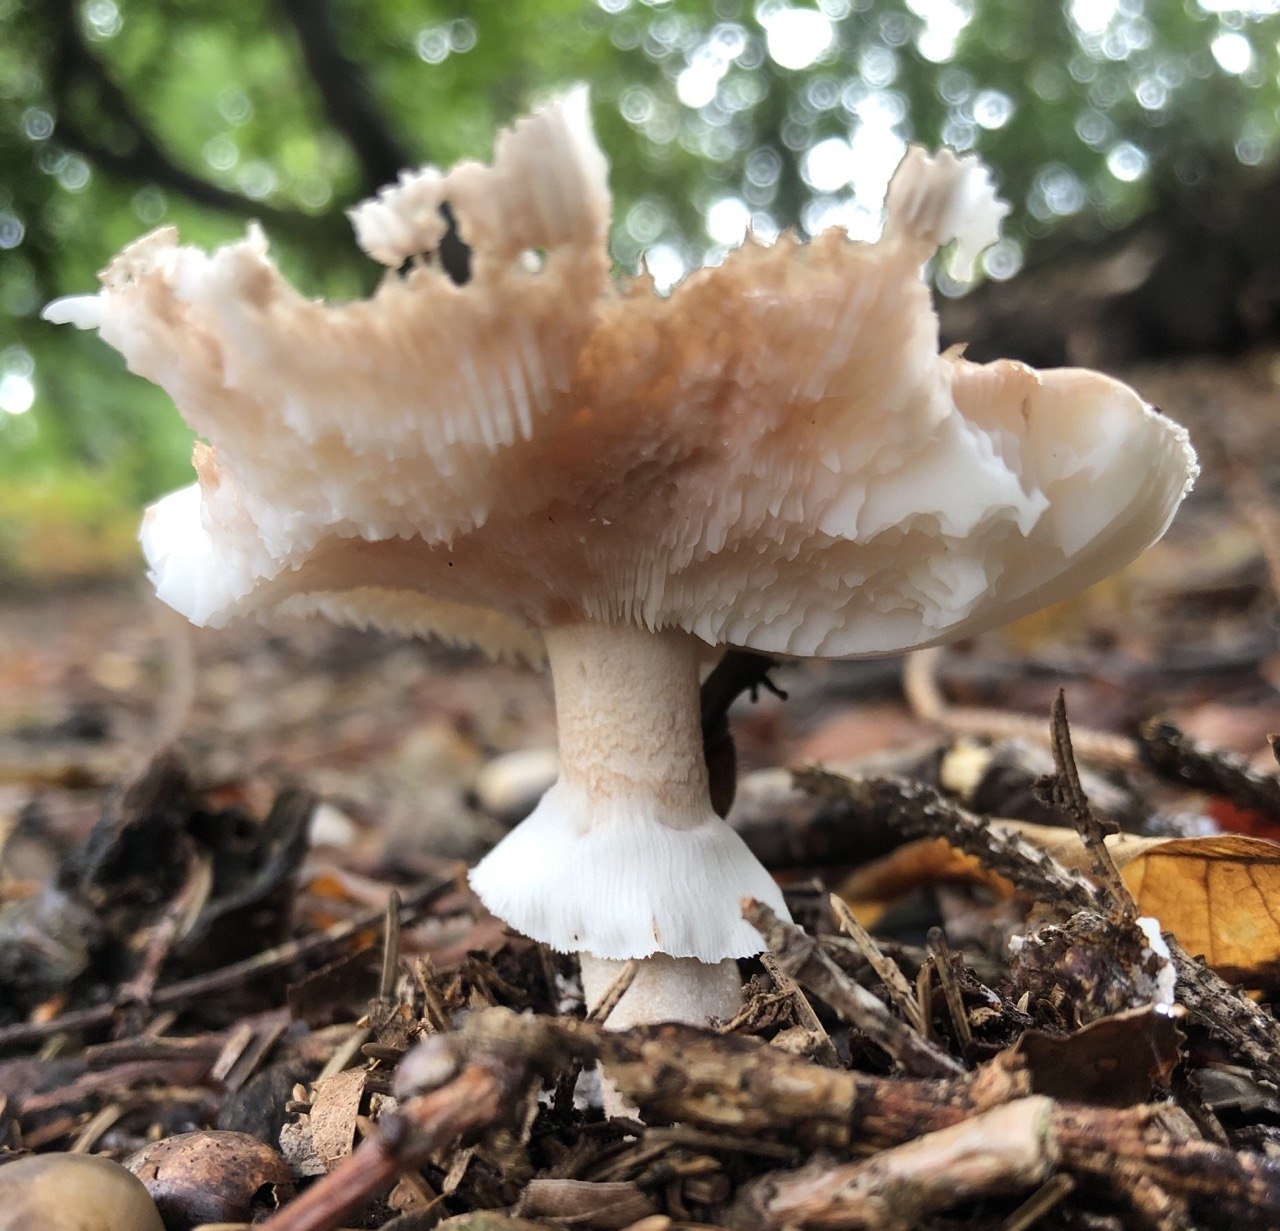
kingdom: Fungi
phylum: Basidiomycota
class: Agaricomycetes
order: Agaricales
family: Amanitaceae
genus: Amanita
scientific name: Amanita rubescens
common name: Blusher
